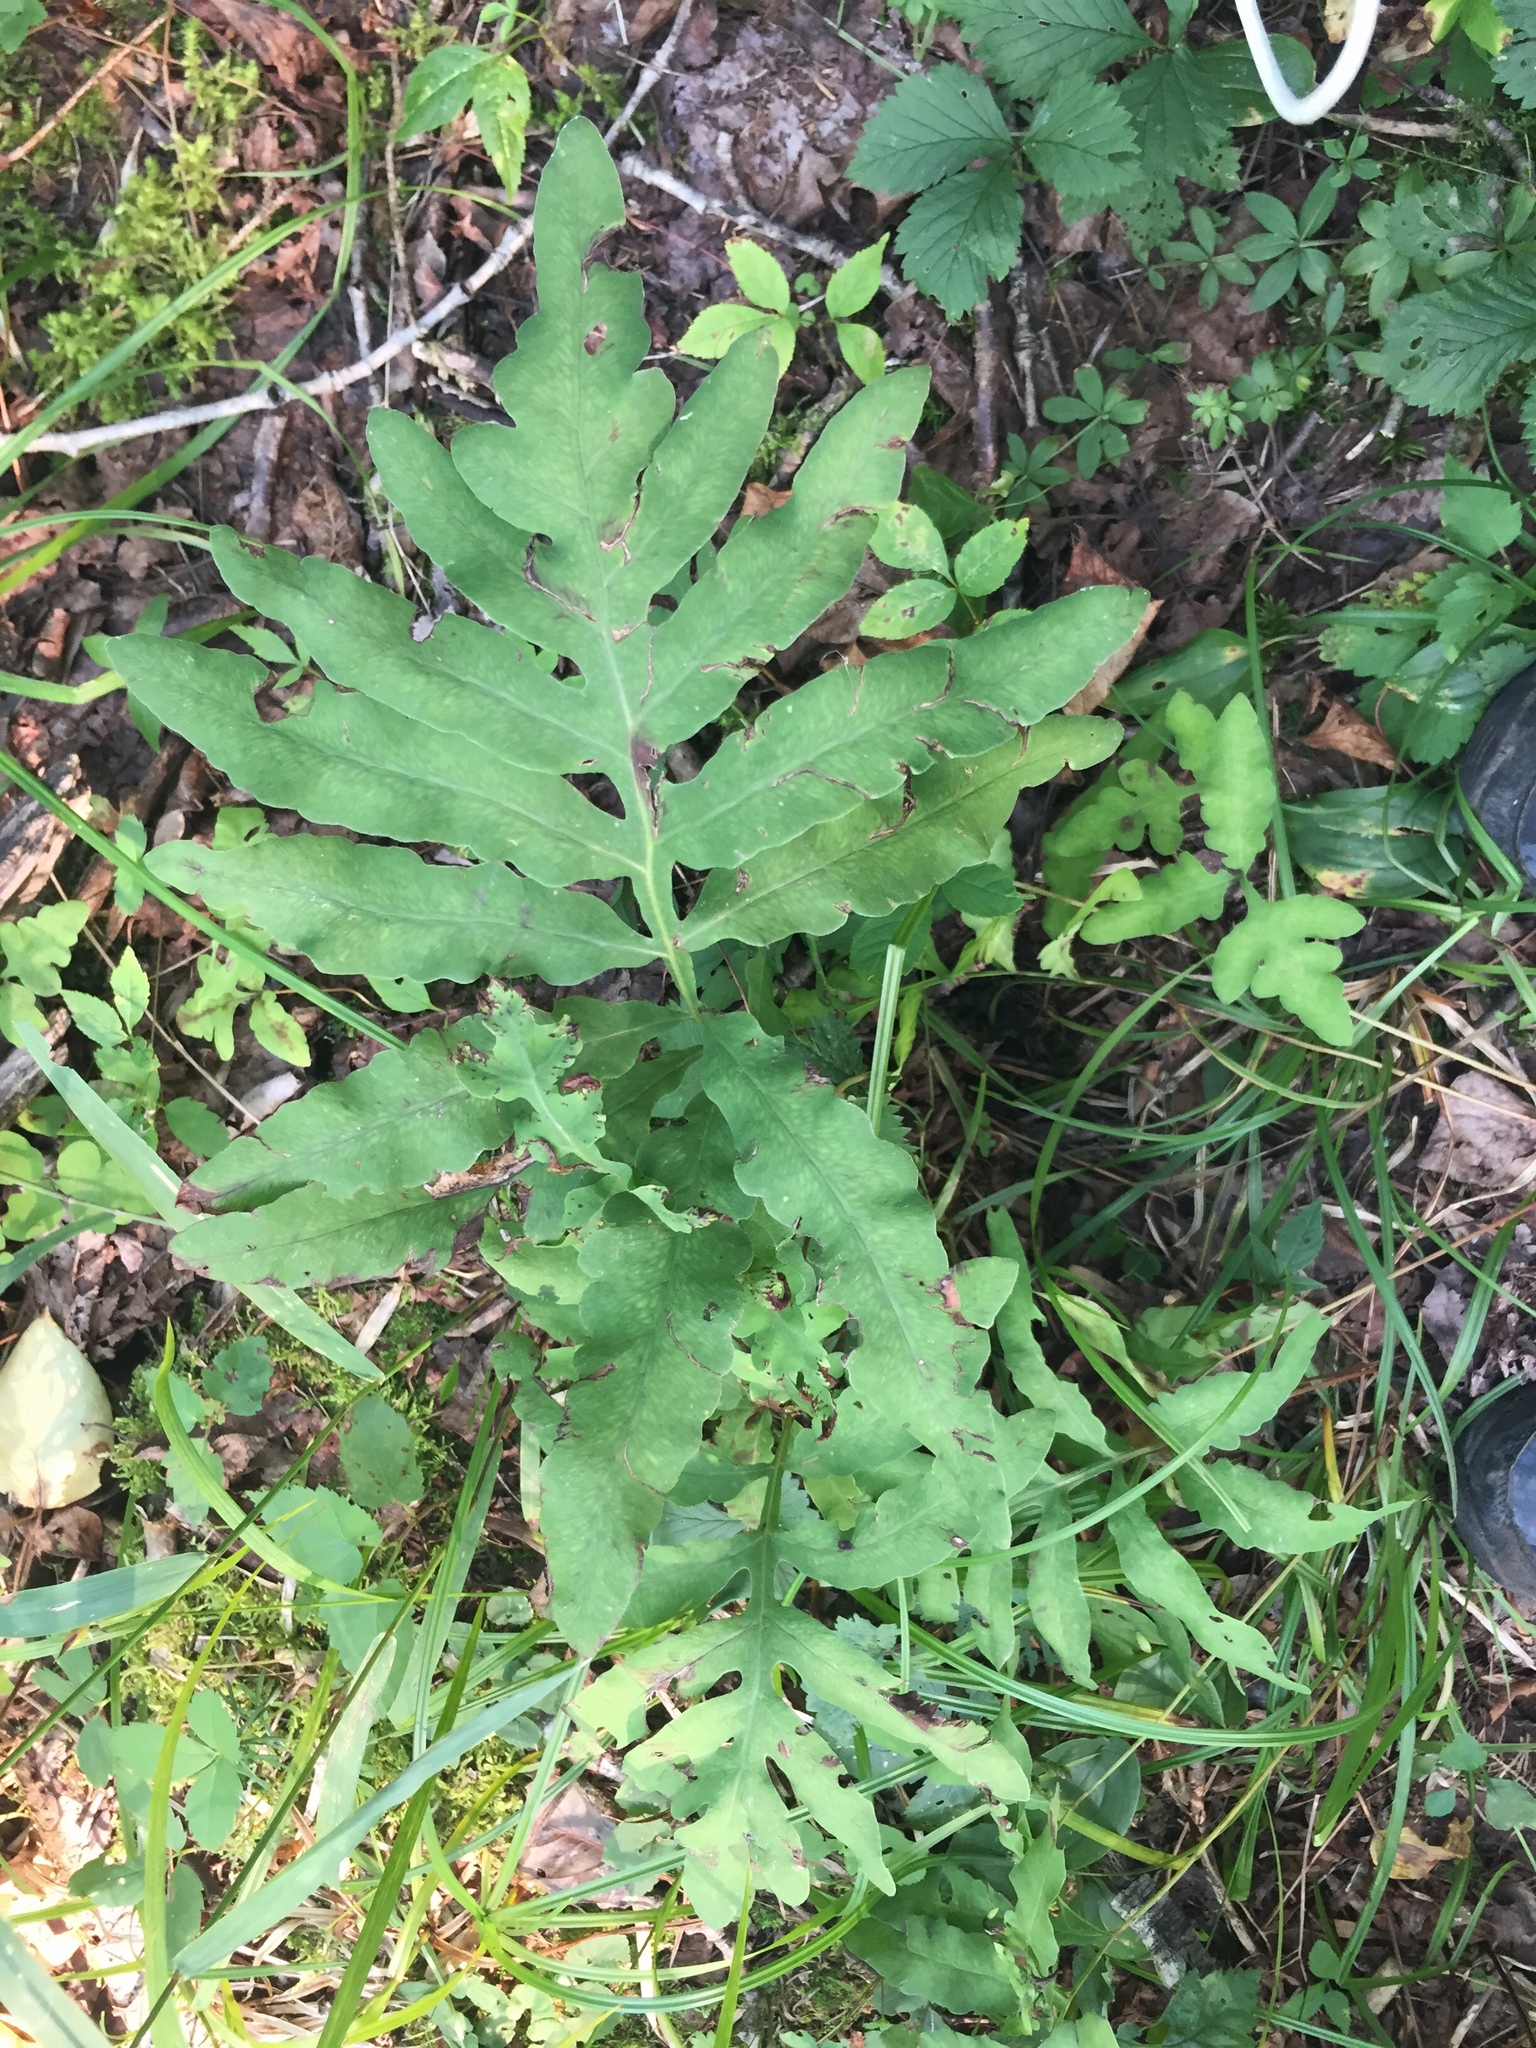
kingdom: Plantae
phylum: Tracheophyta
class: Polypodiopsida
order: Polypodiales
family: Onocleaceae
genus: Onoclea
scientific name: Onoclea sensibilis
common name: Sensitive fern
